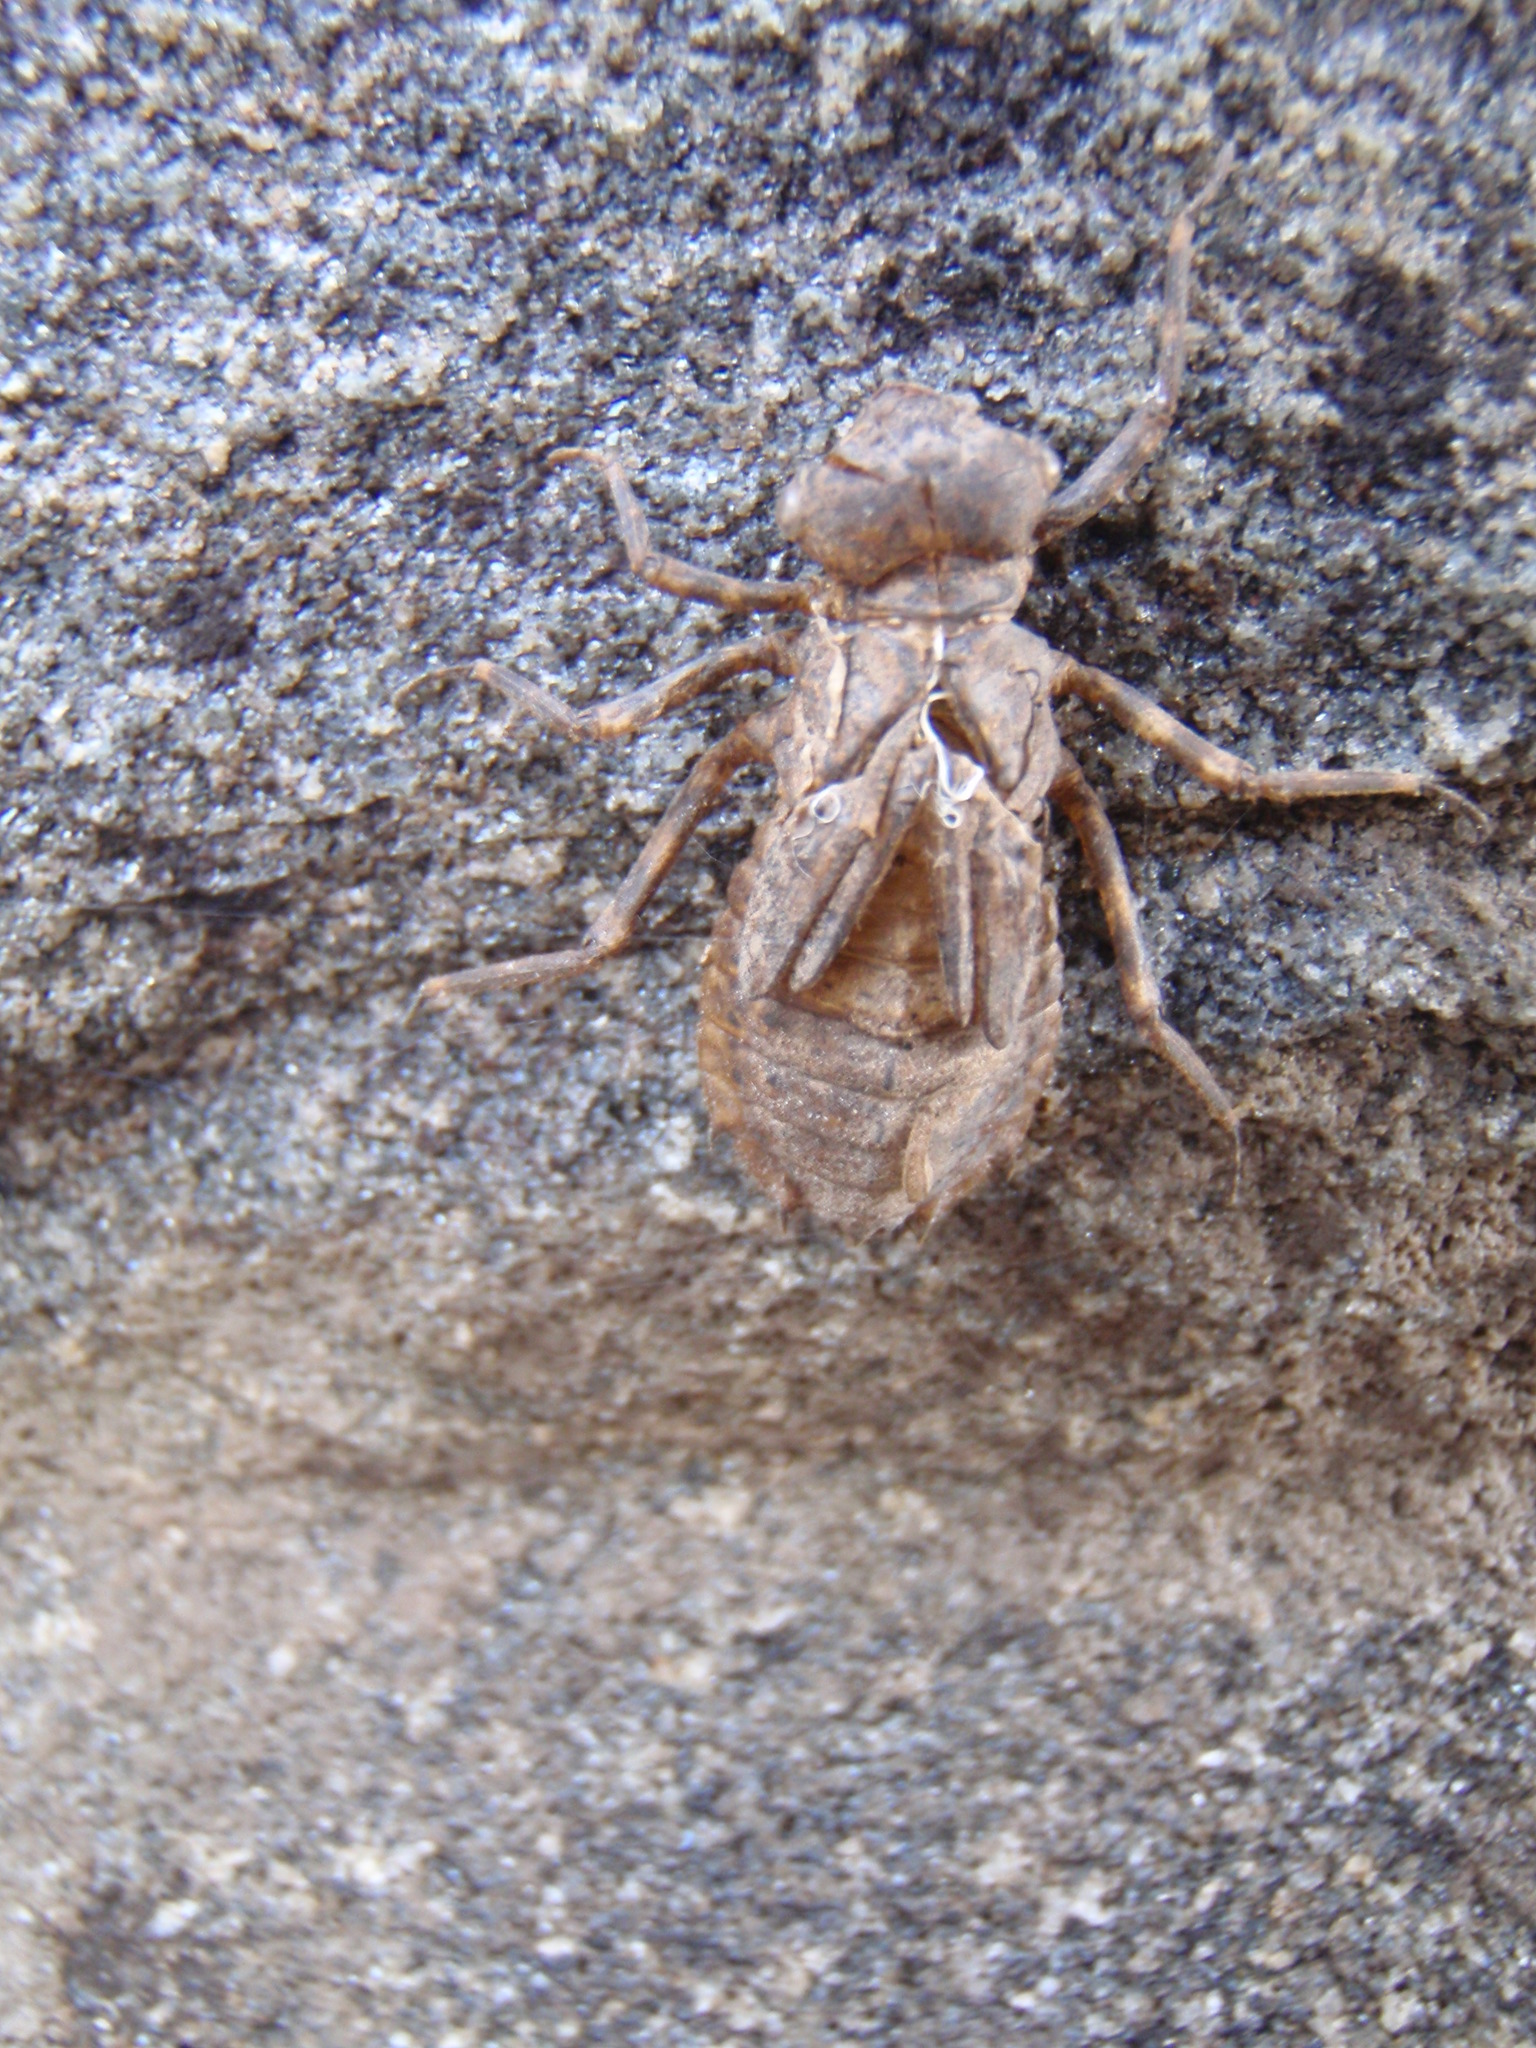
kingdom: Animalia
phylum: Arthropoda
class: Insecta
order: Odonata
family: Corduliidae
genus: Neurocordulia
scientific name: Neurocordulia michaeli
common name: Broad-tailed shadowdragon
